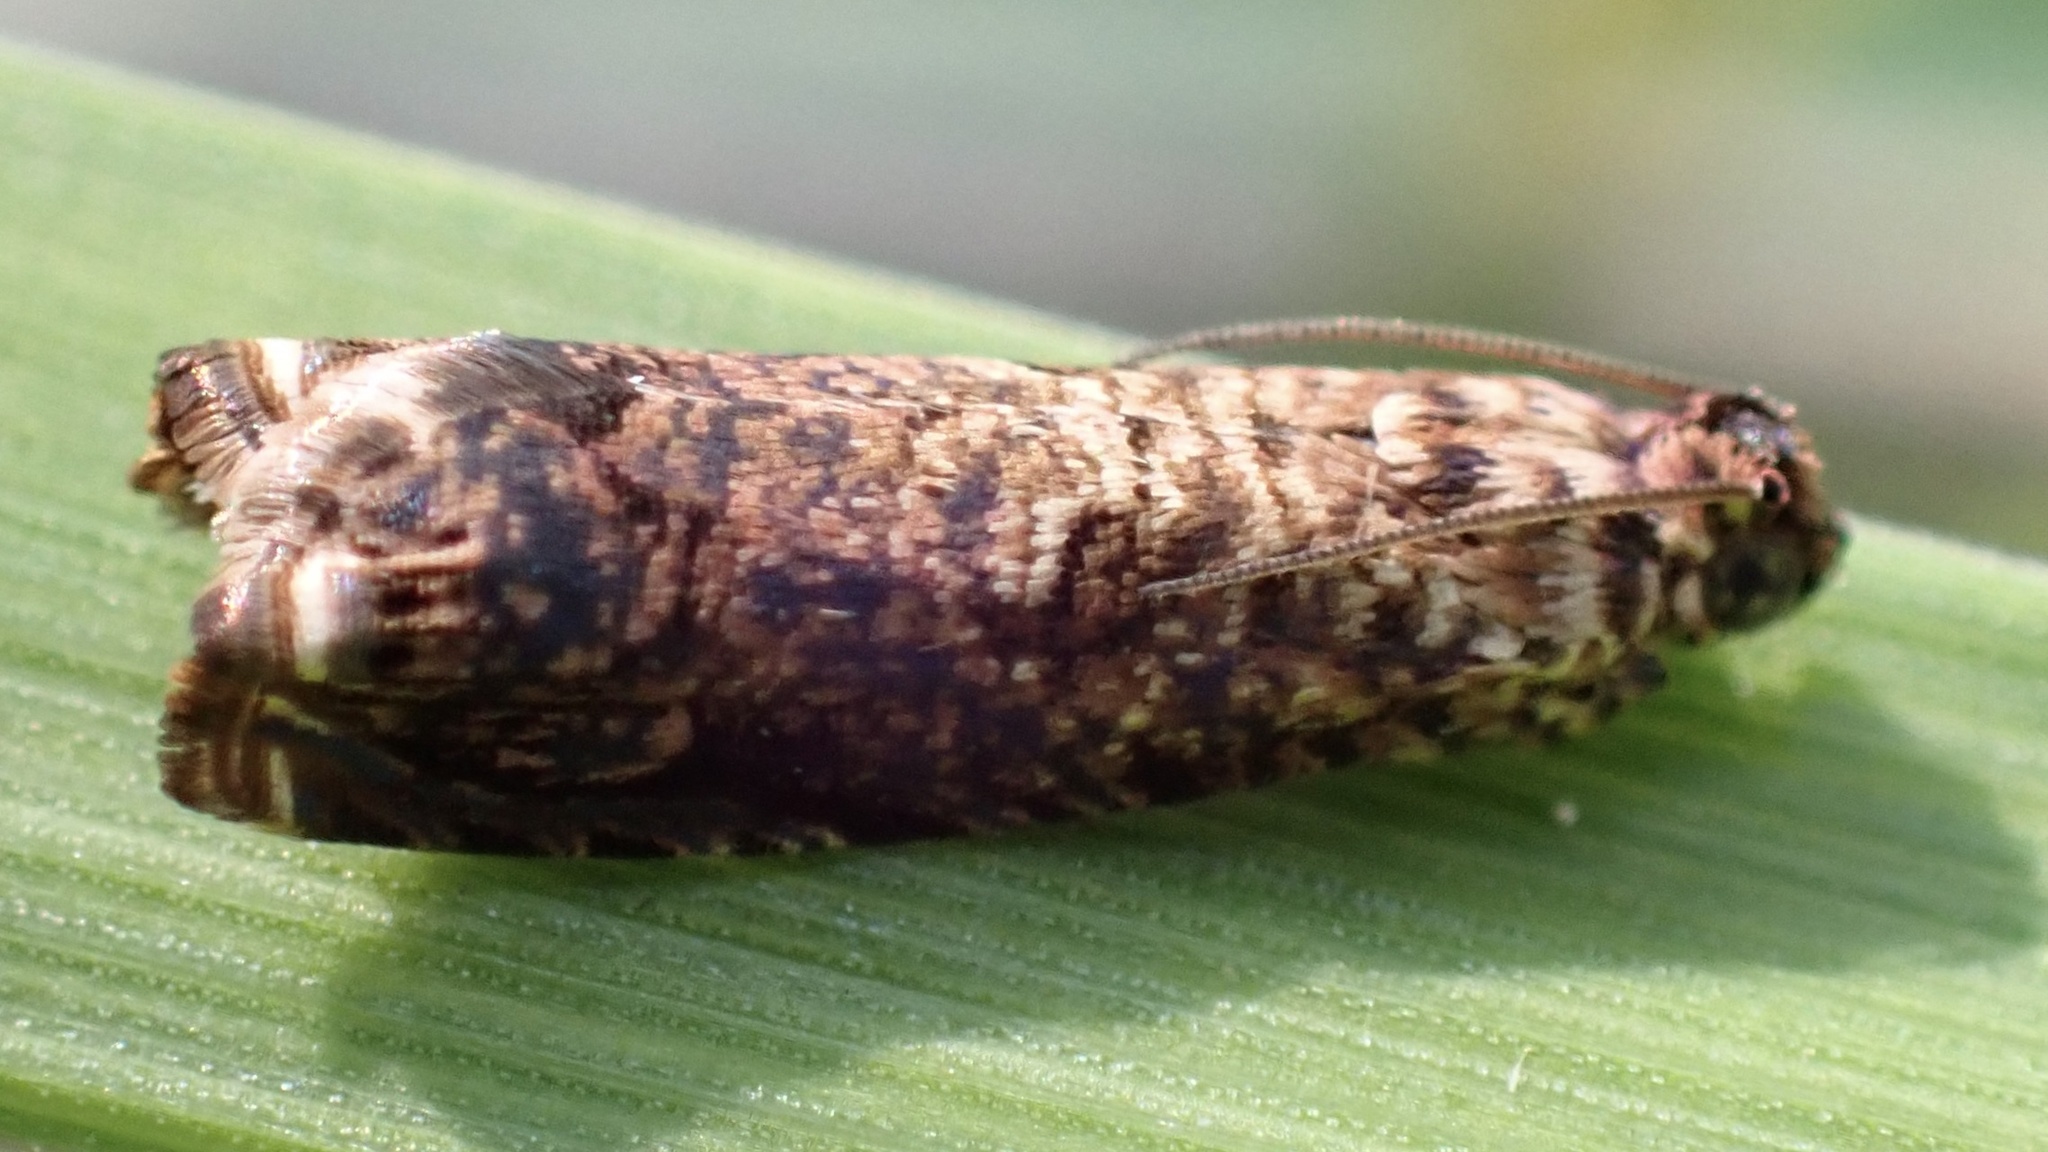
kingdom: Animalia
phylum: Arthropoda
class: Insecta
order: Lepidoptera
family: Tortricidae
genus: Episimus
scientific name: Episimus argutana
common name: Sumac leaftier moth
